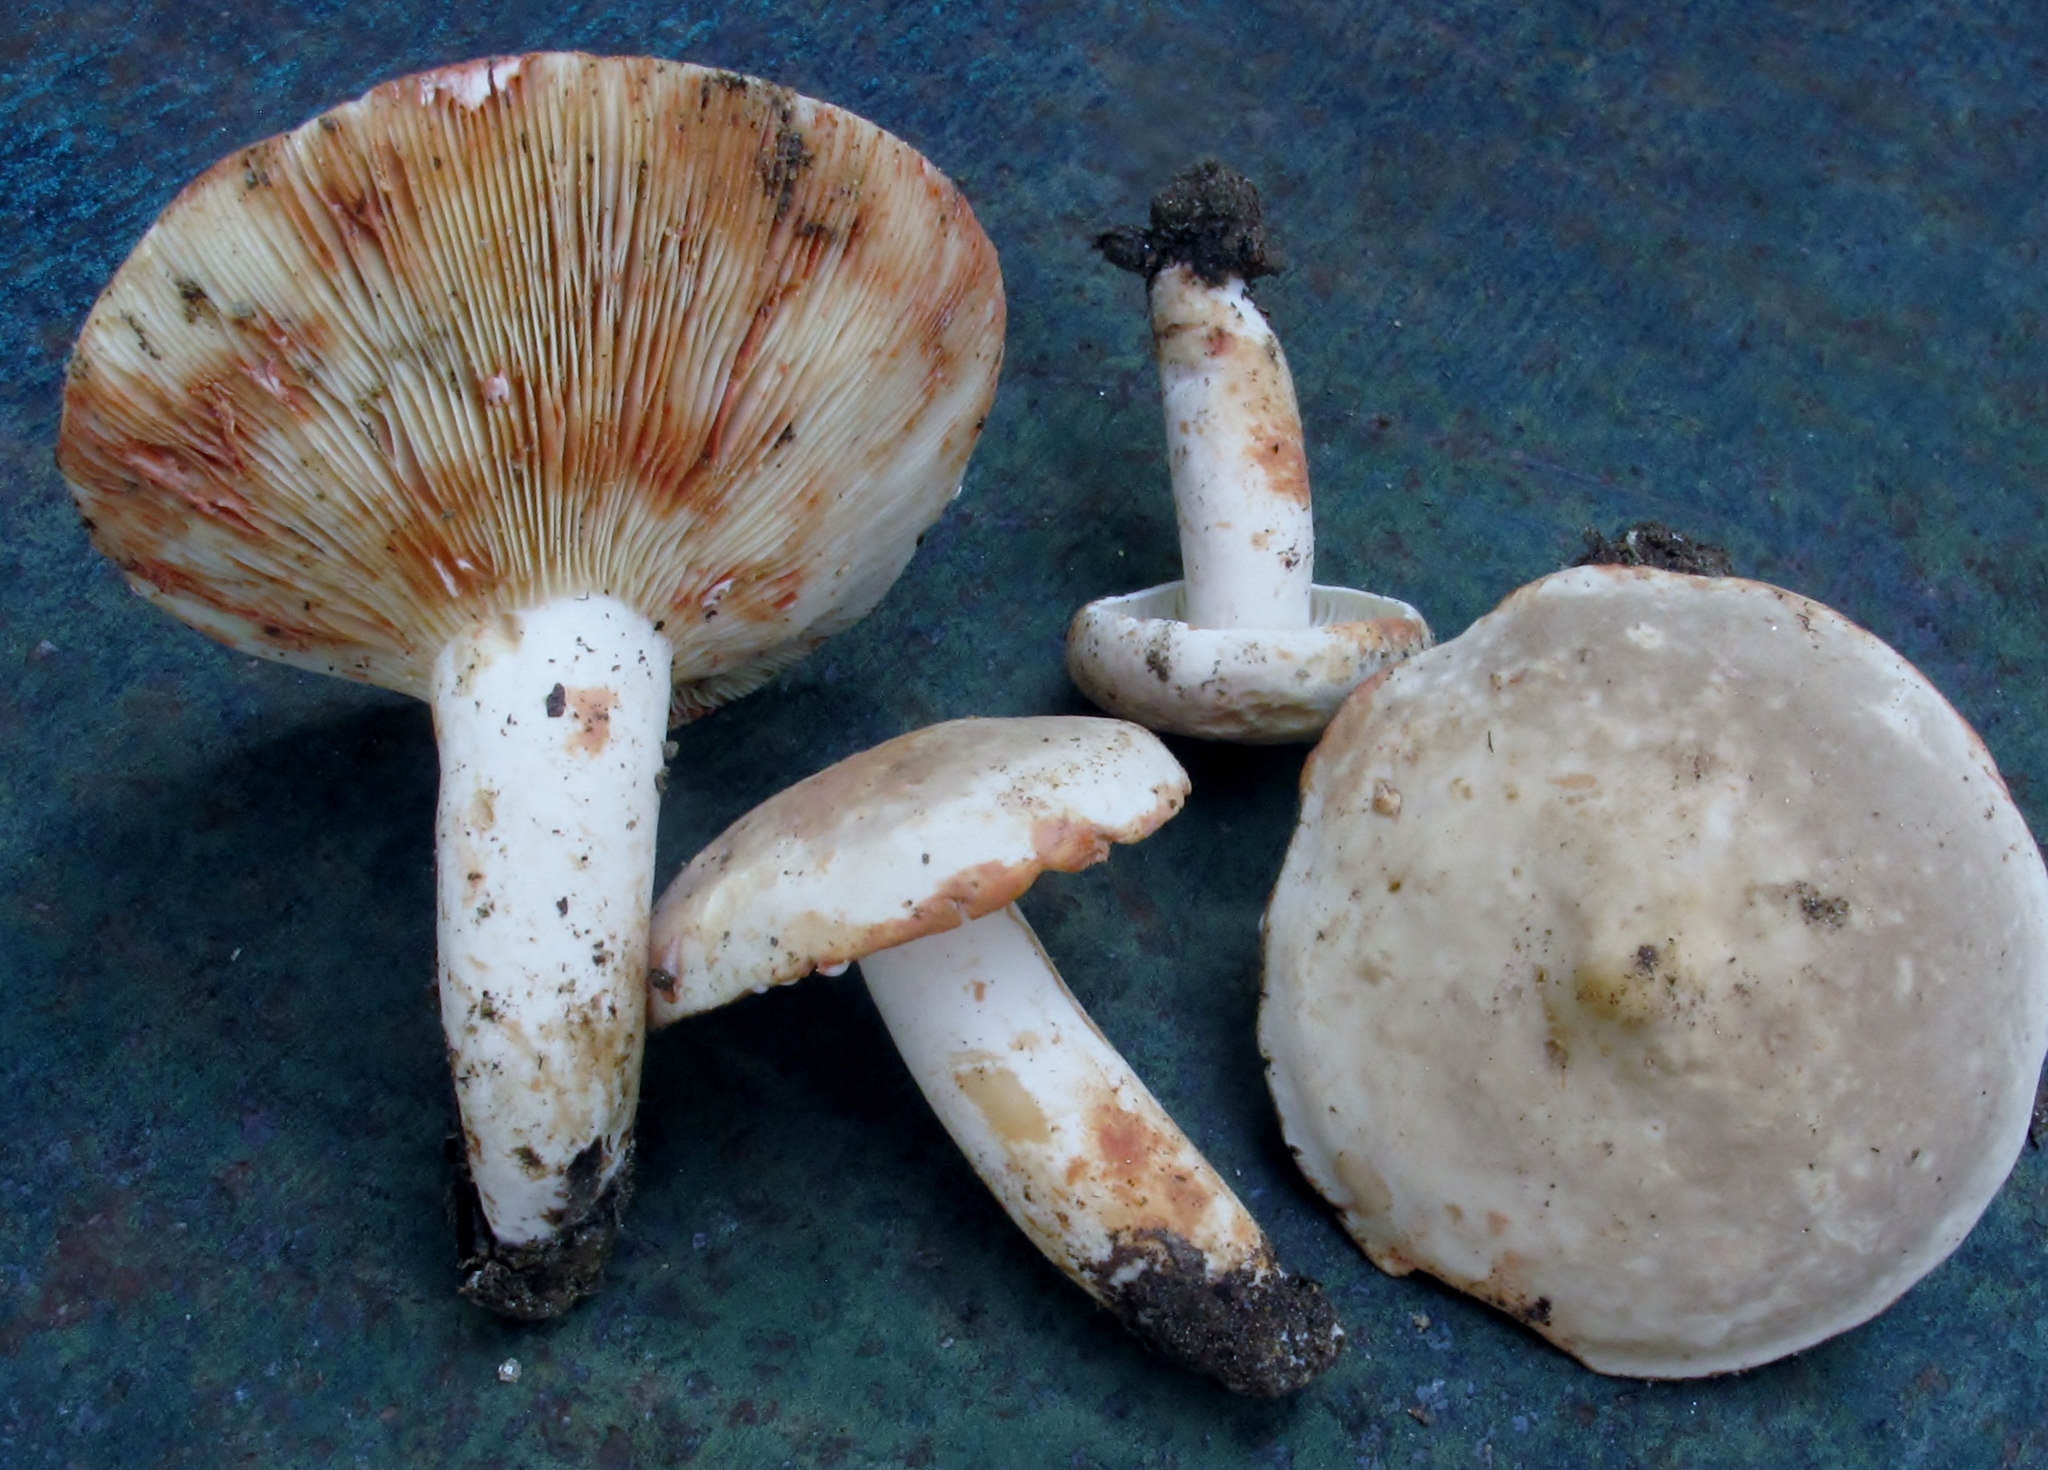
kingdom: Fungi
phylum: Basidiomycota
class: Agaricomycetes
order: Russulales
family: Russulaceae
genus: Lactarius
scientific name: Lactarius subvernalis
